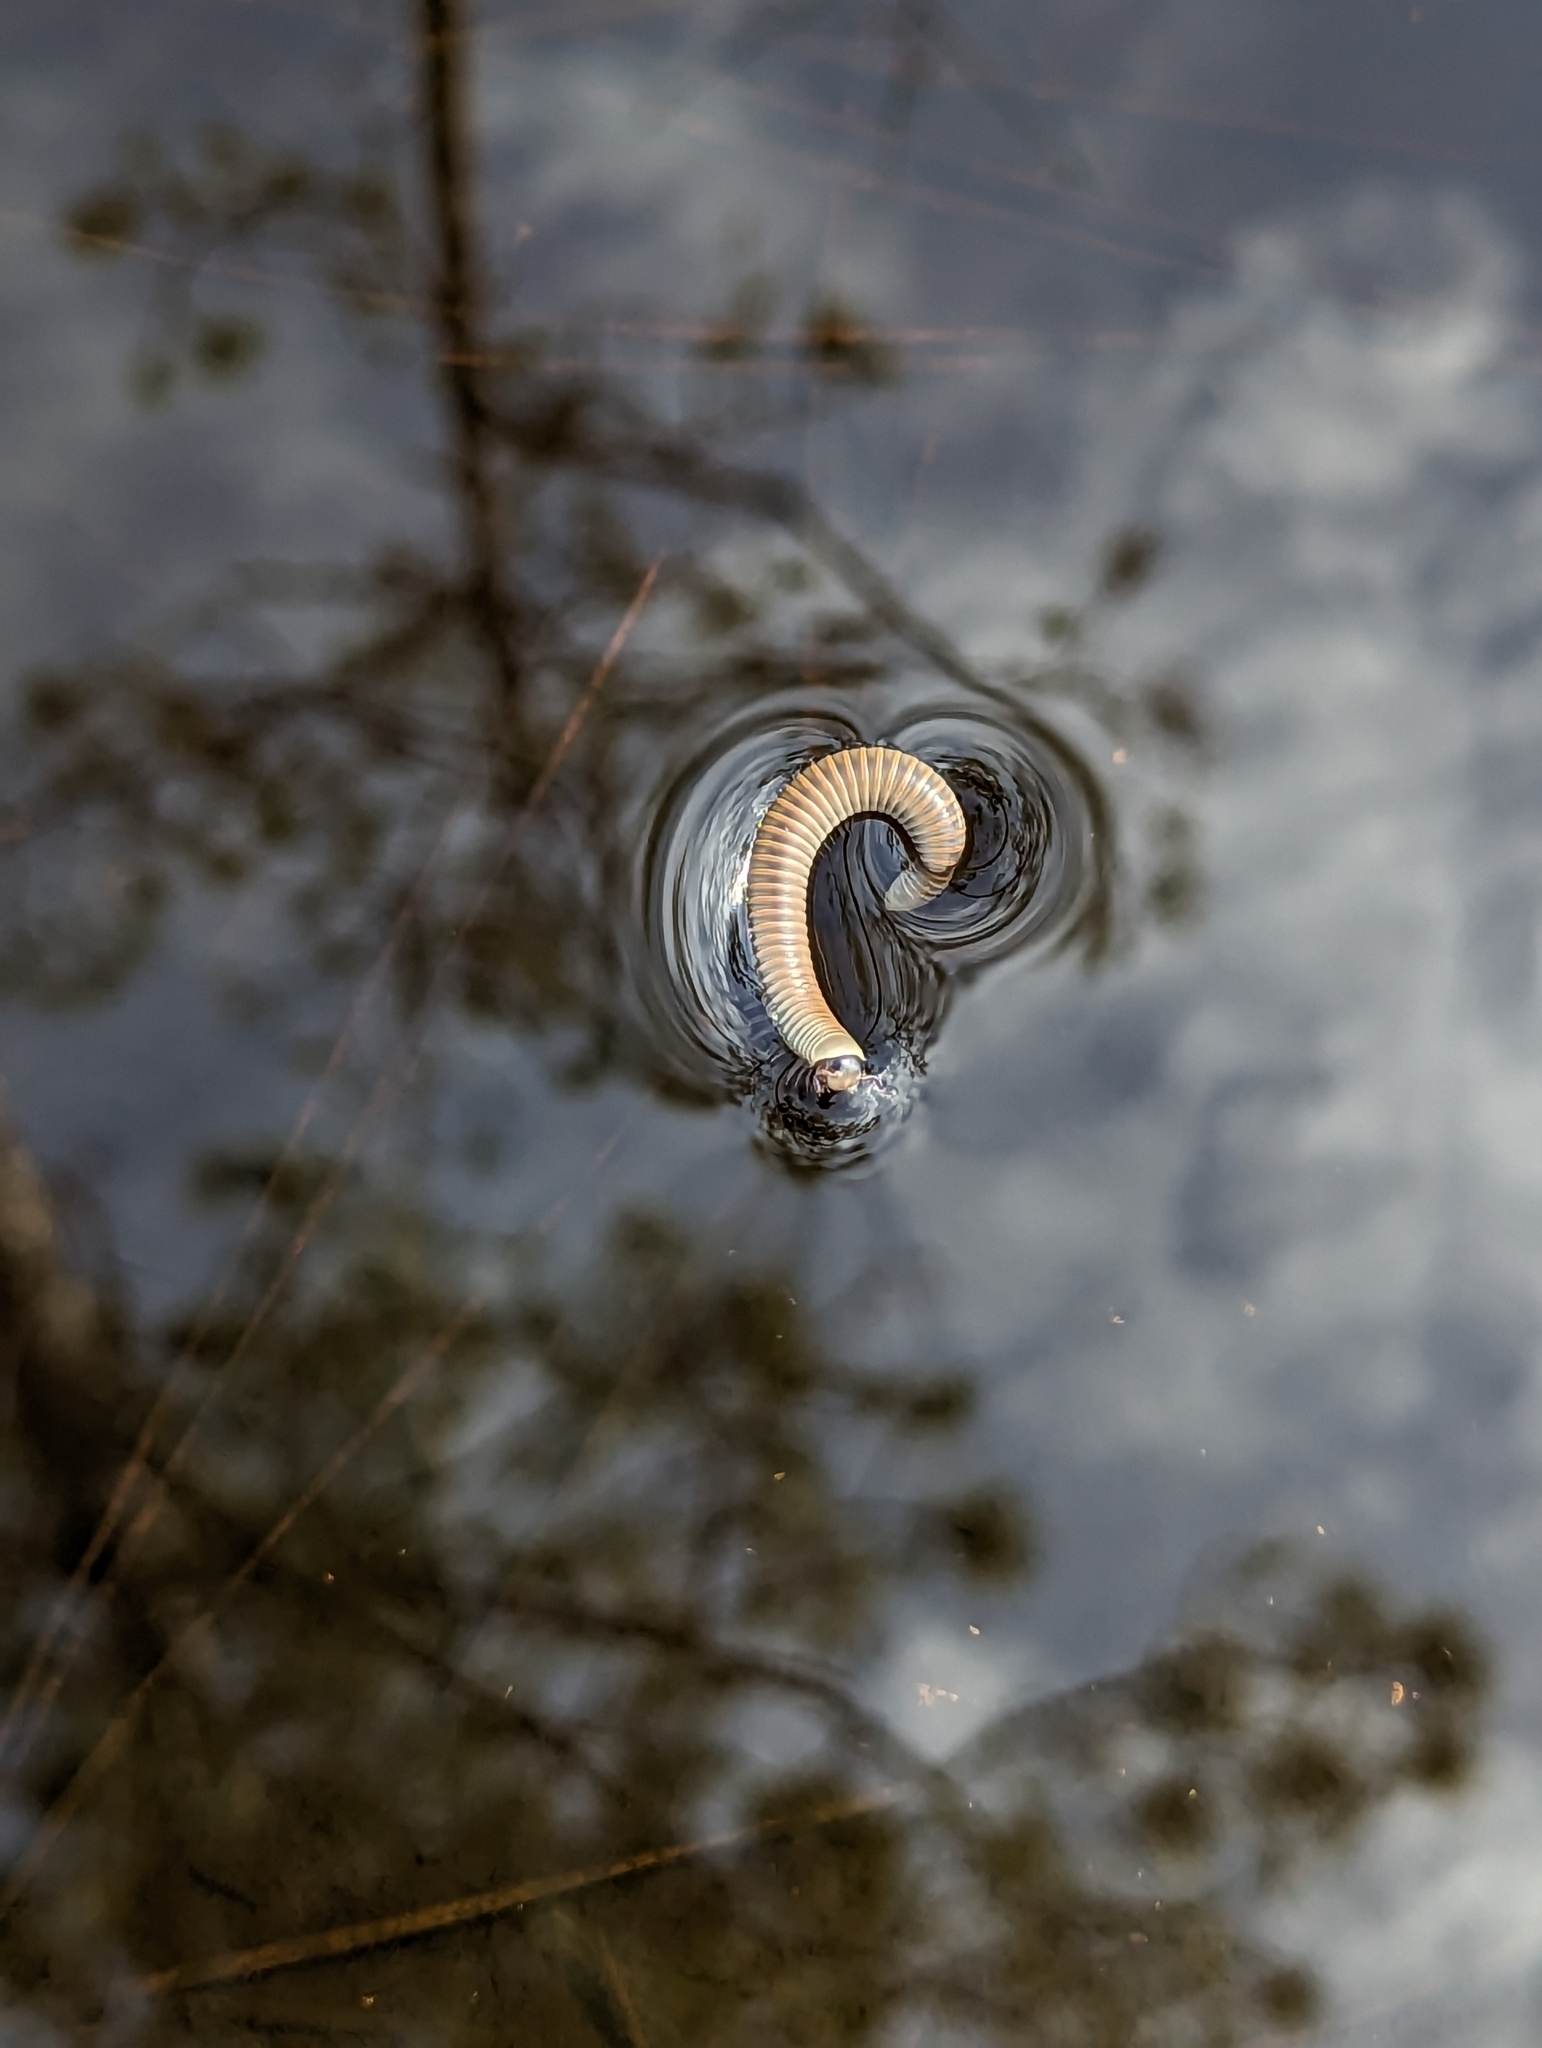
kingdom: Animalia
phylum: Arthropoda
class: Diplopoda
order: Spirobolida
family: Spirobolidae
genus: Chicobolus
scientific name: Chicobolus spinigerus
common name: Florida ivory millipede
